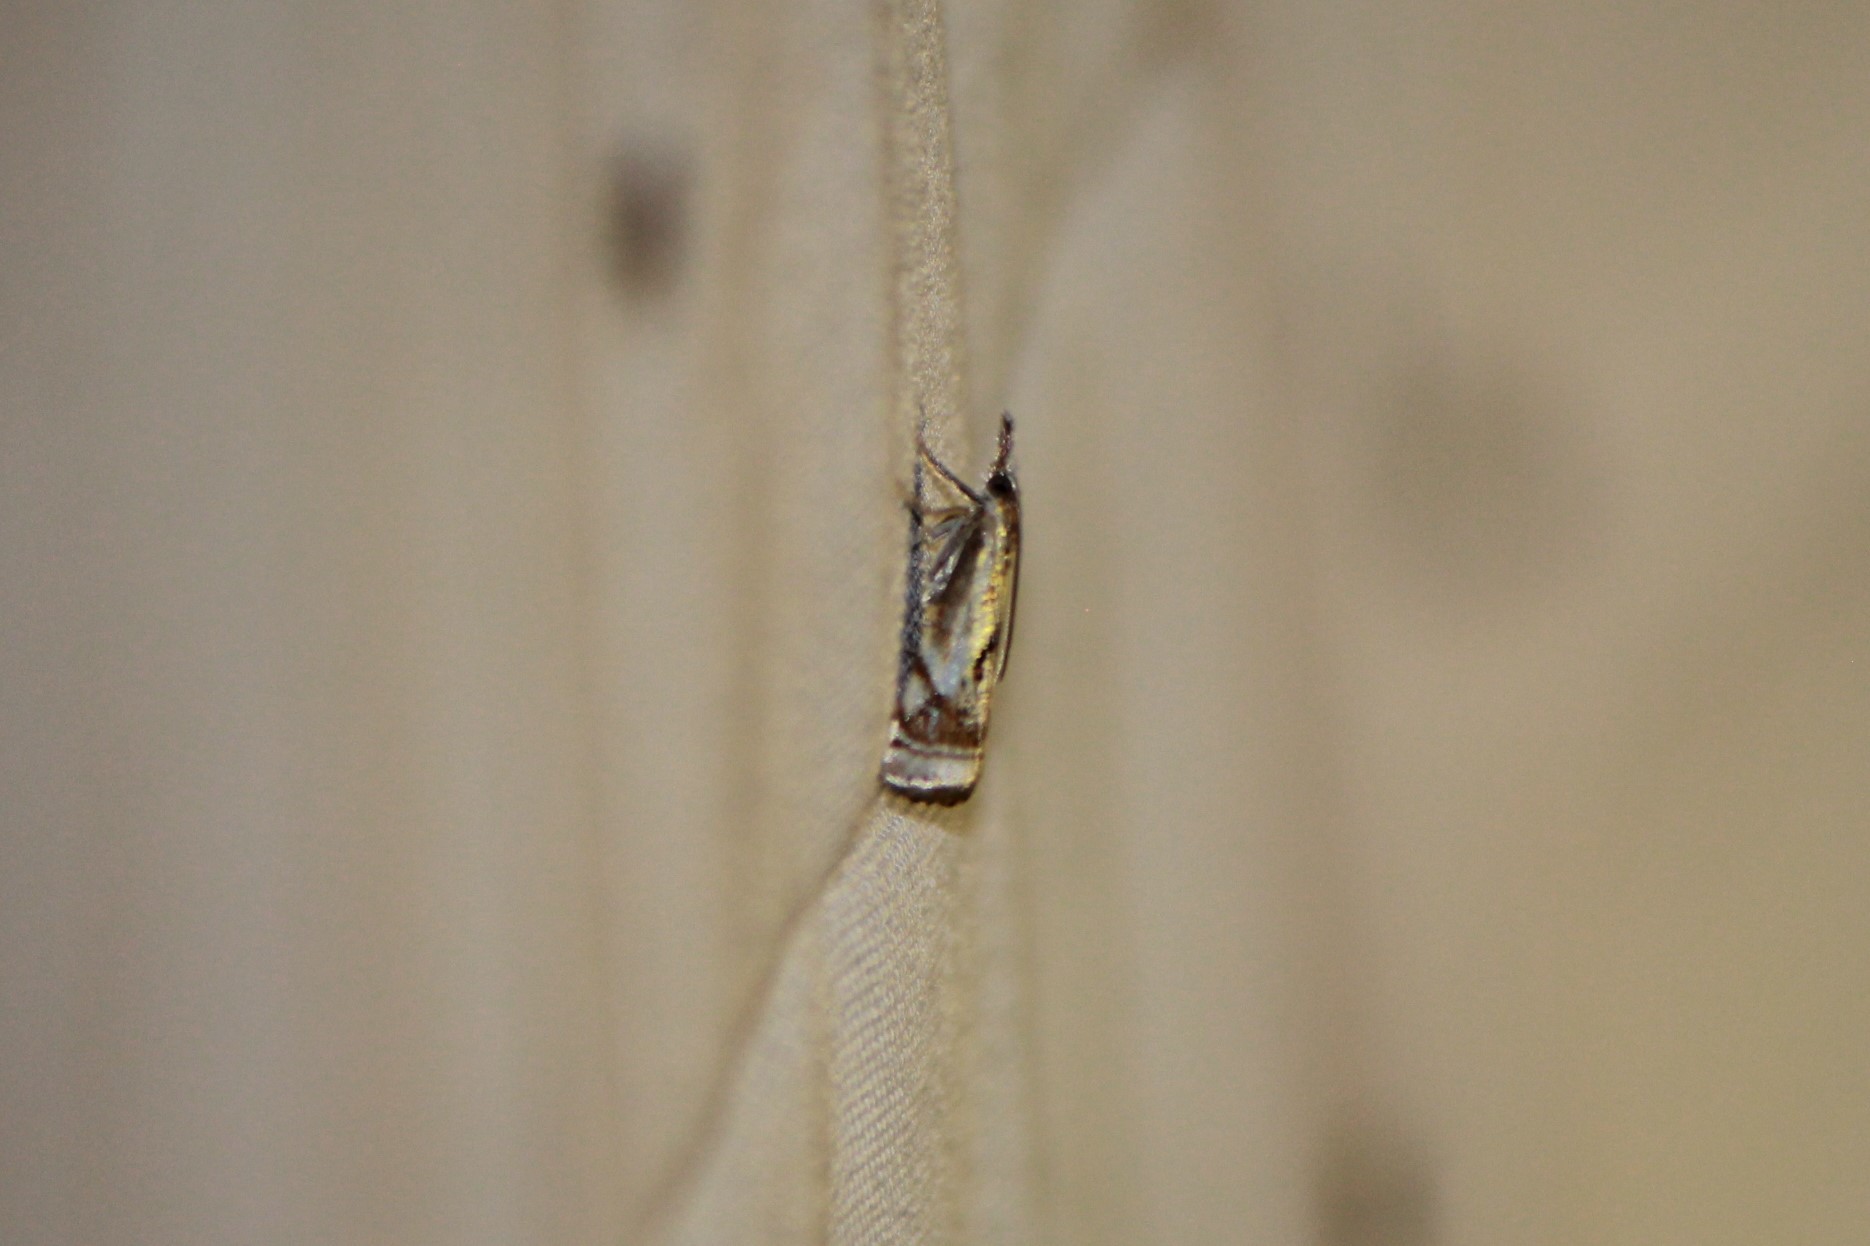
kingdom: Animalia
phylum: Arthropoda
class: Insecta
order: Lepidoptera
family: Crambidae
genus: Microcrambus
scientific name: Microcrambus elegans
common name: Elegant grass-veneer
